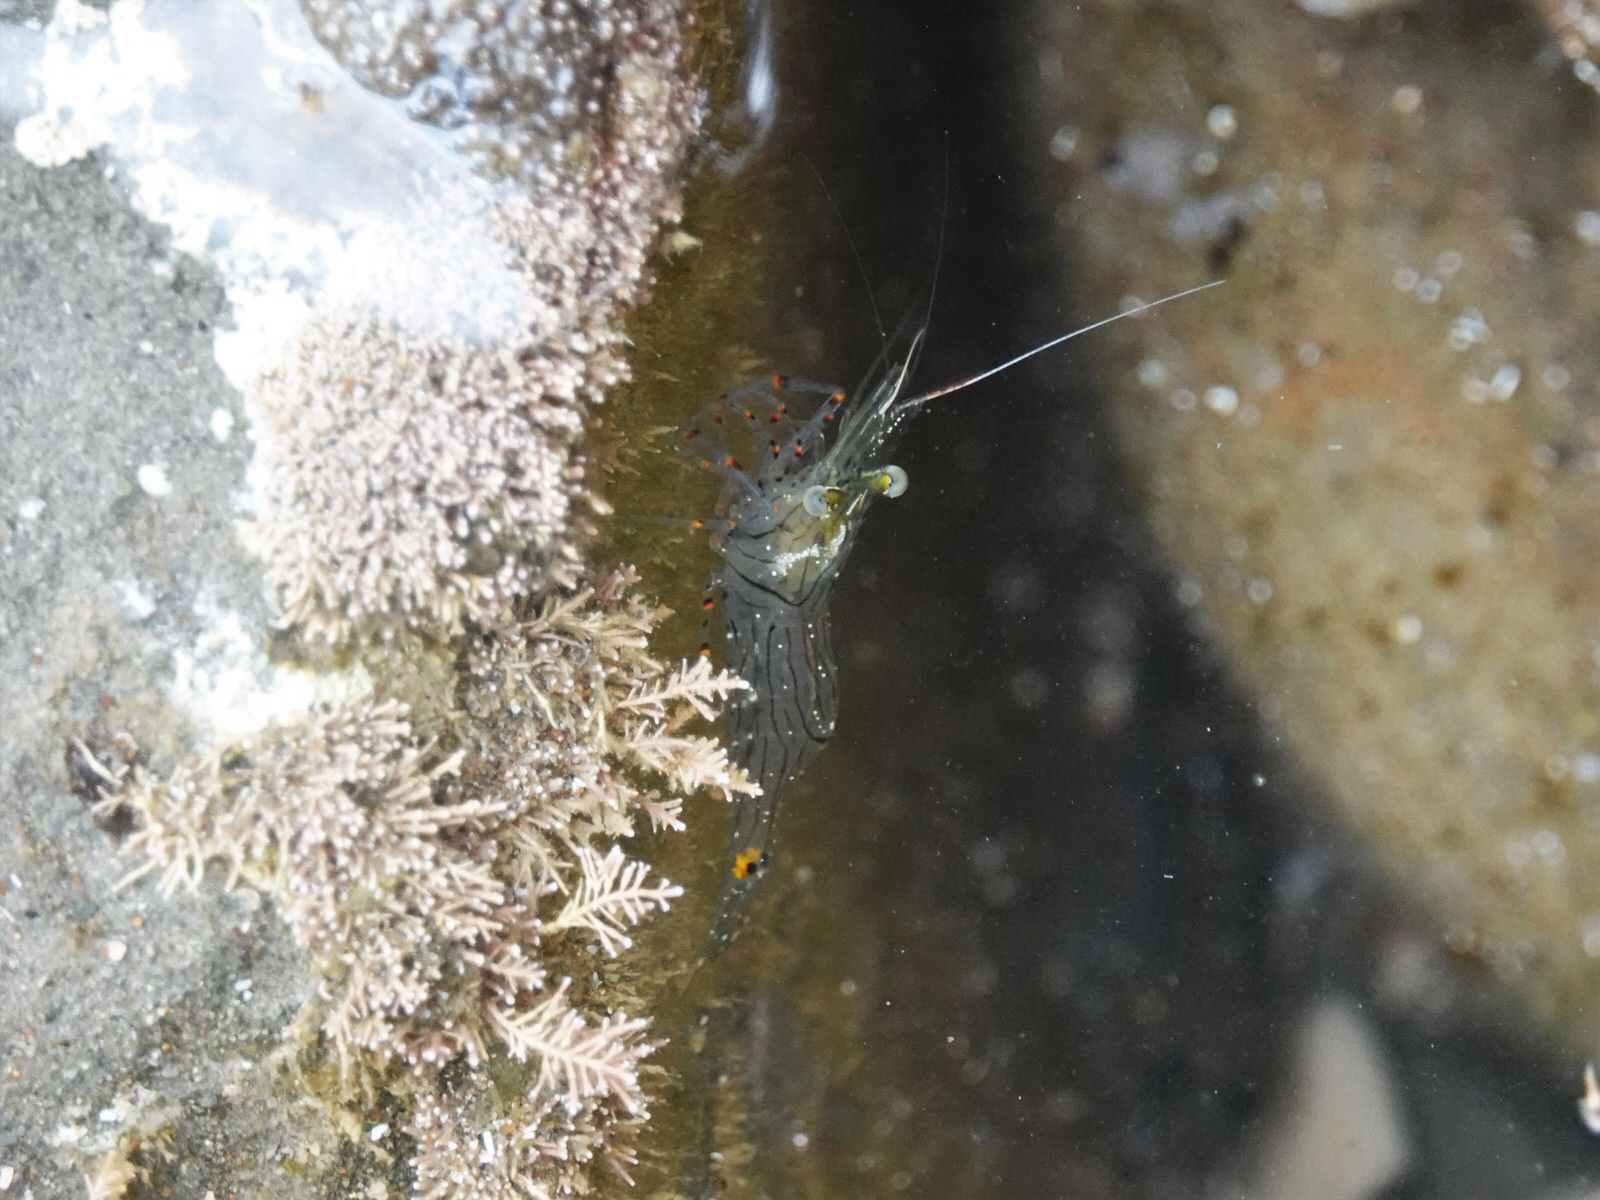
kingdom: Animalia
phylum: Arthropoda
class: Malacostraca
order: Decapoda
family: Palaemonidae
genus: Palaemon
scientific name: Palaemon affinis
